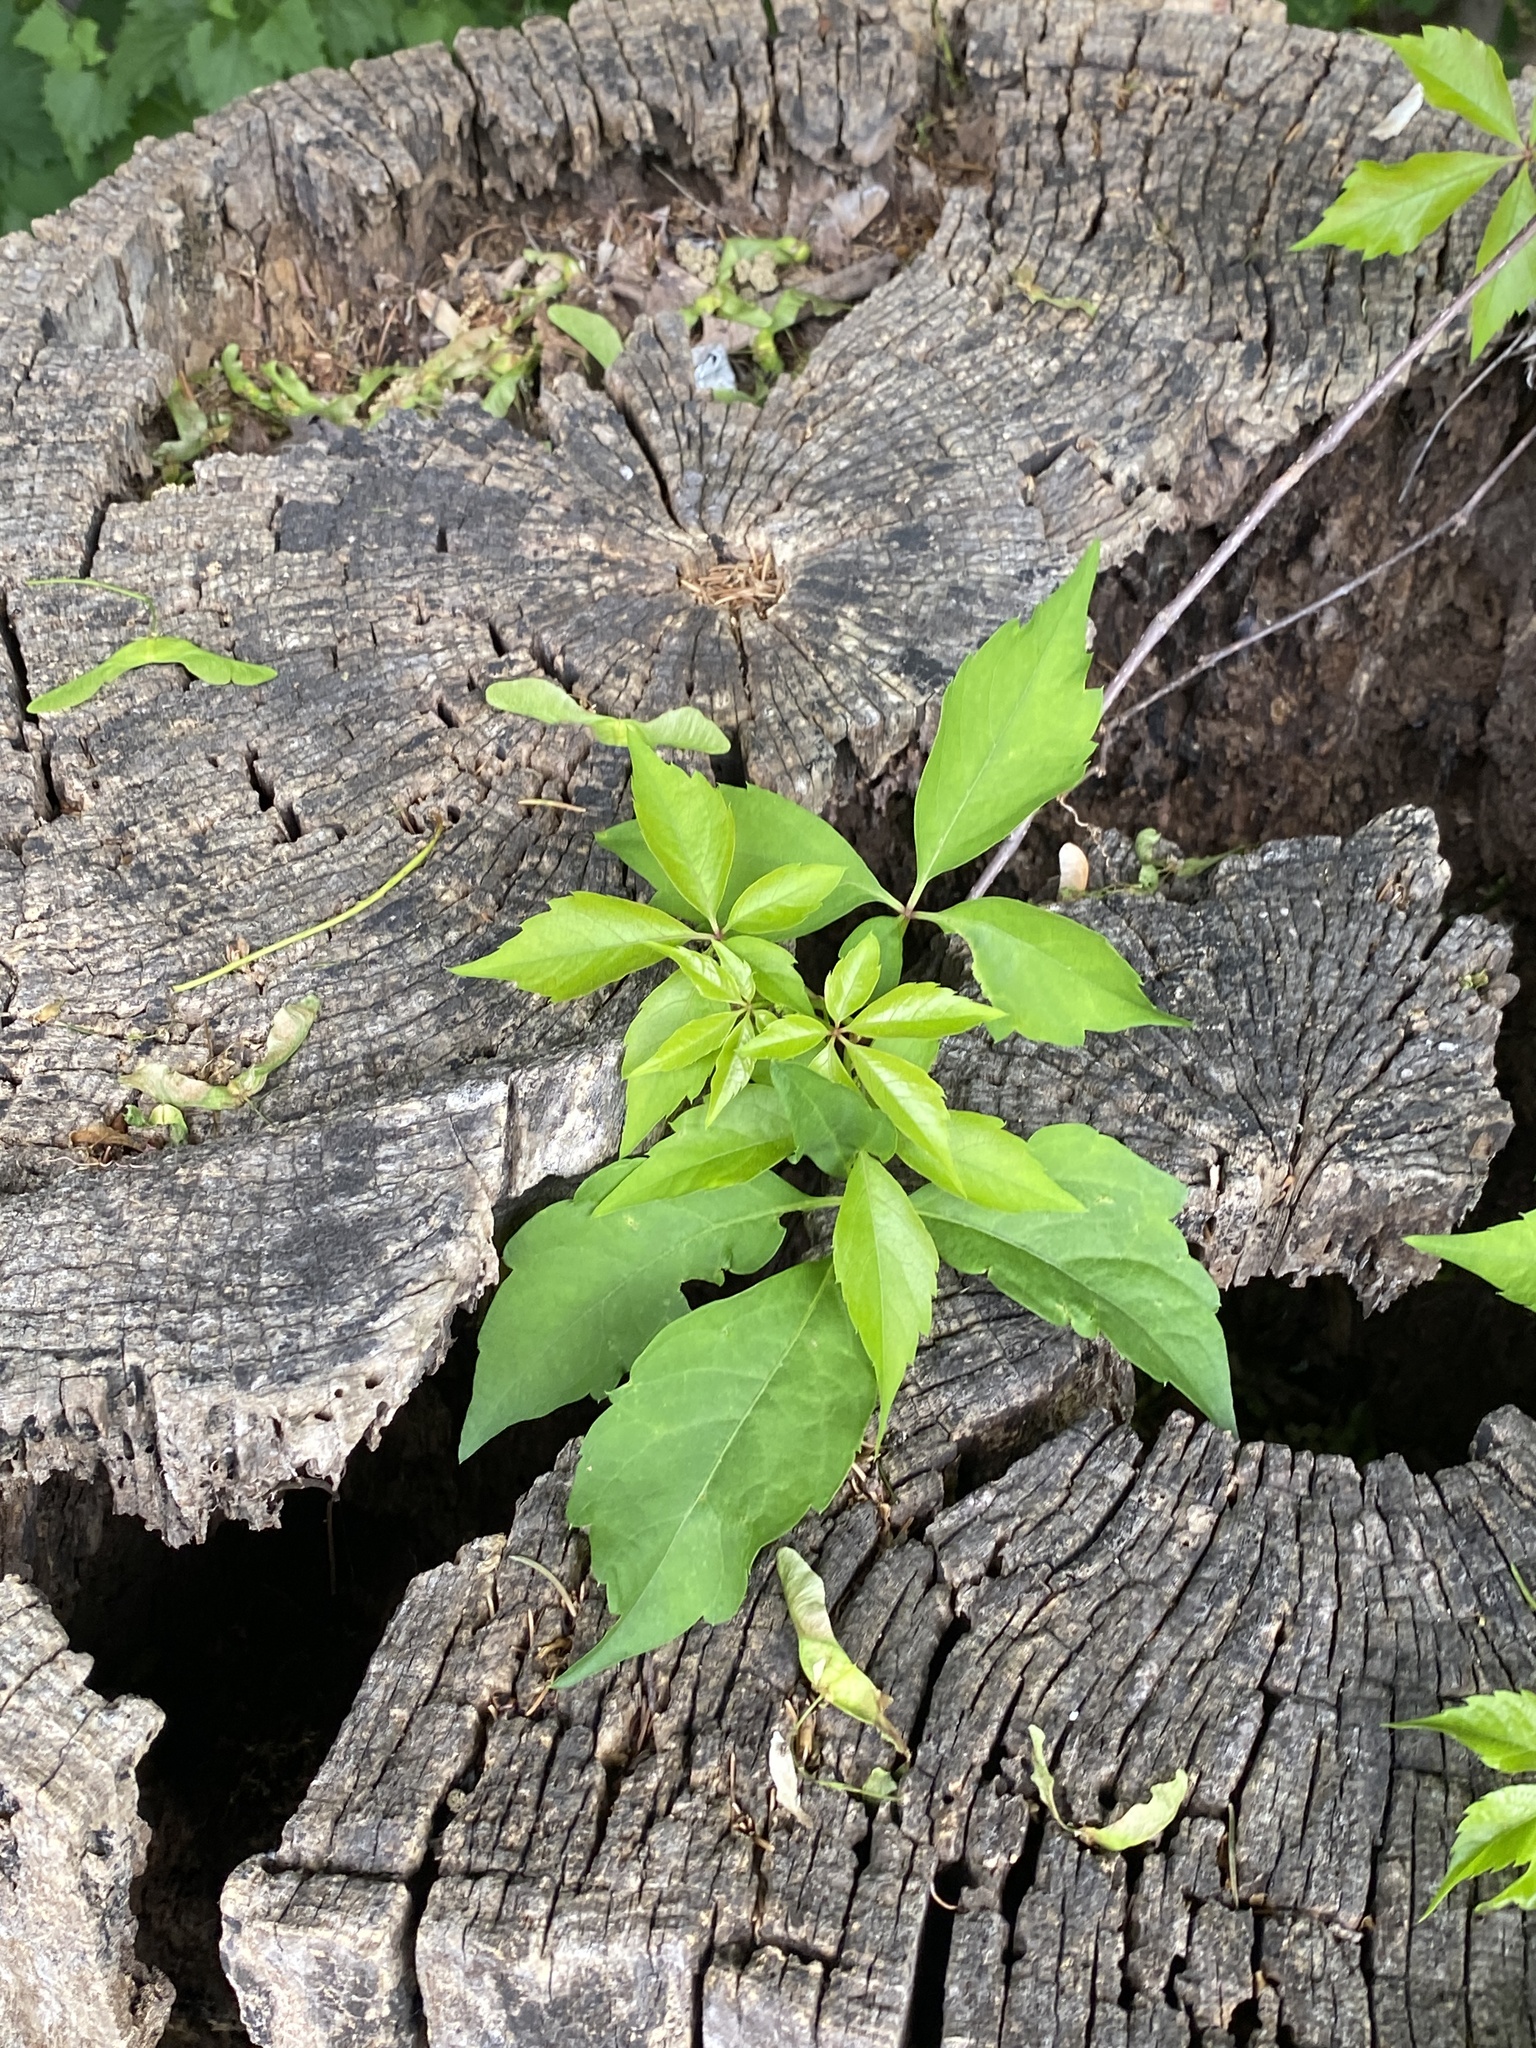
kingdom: Plantae
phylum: Tracheophyta
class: Magnoliopsida
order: Vitales
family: Vitaceae
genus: Parthenocissus
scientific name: Parthenocissus quinquefolia
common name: Virginia-creeper
